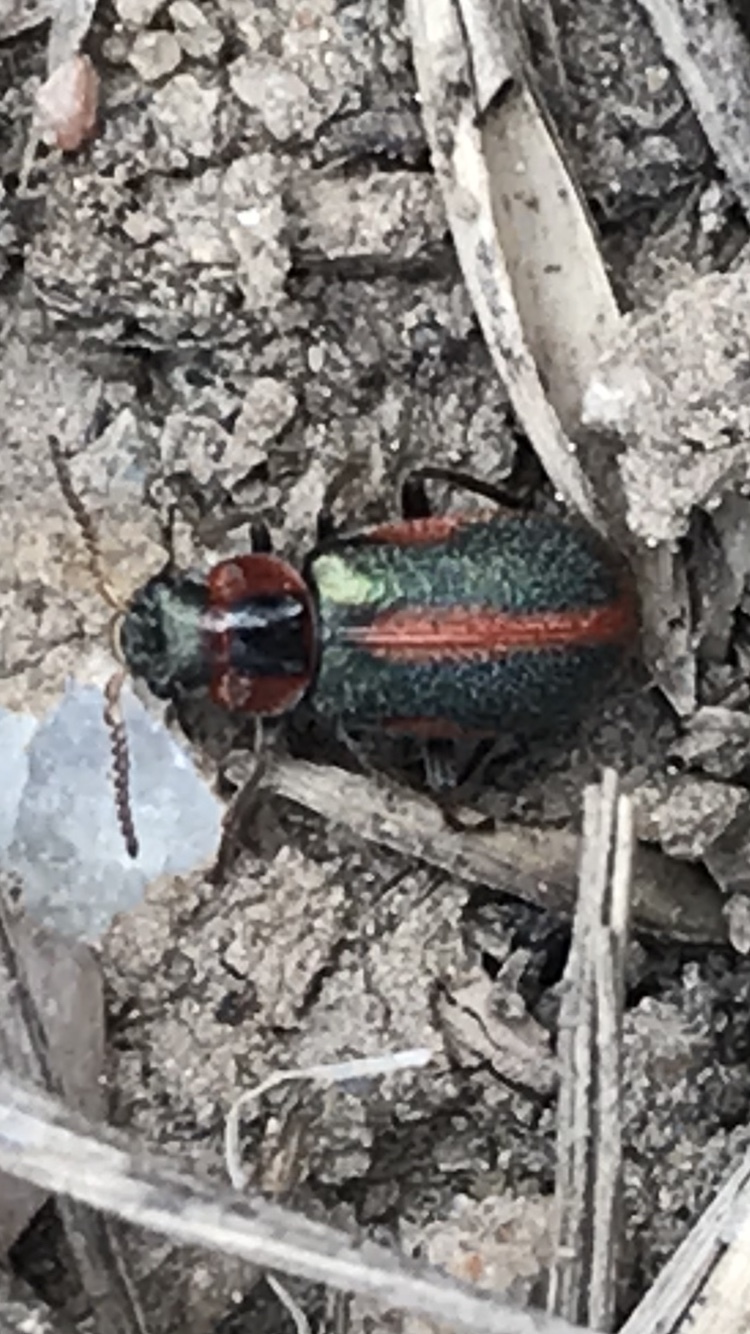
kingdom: Animalia
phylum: Arthropoda
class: Insecta
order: Coleoptera
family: Melyridae
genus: Collops
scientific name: Collops vittatus
